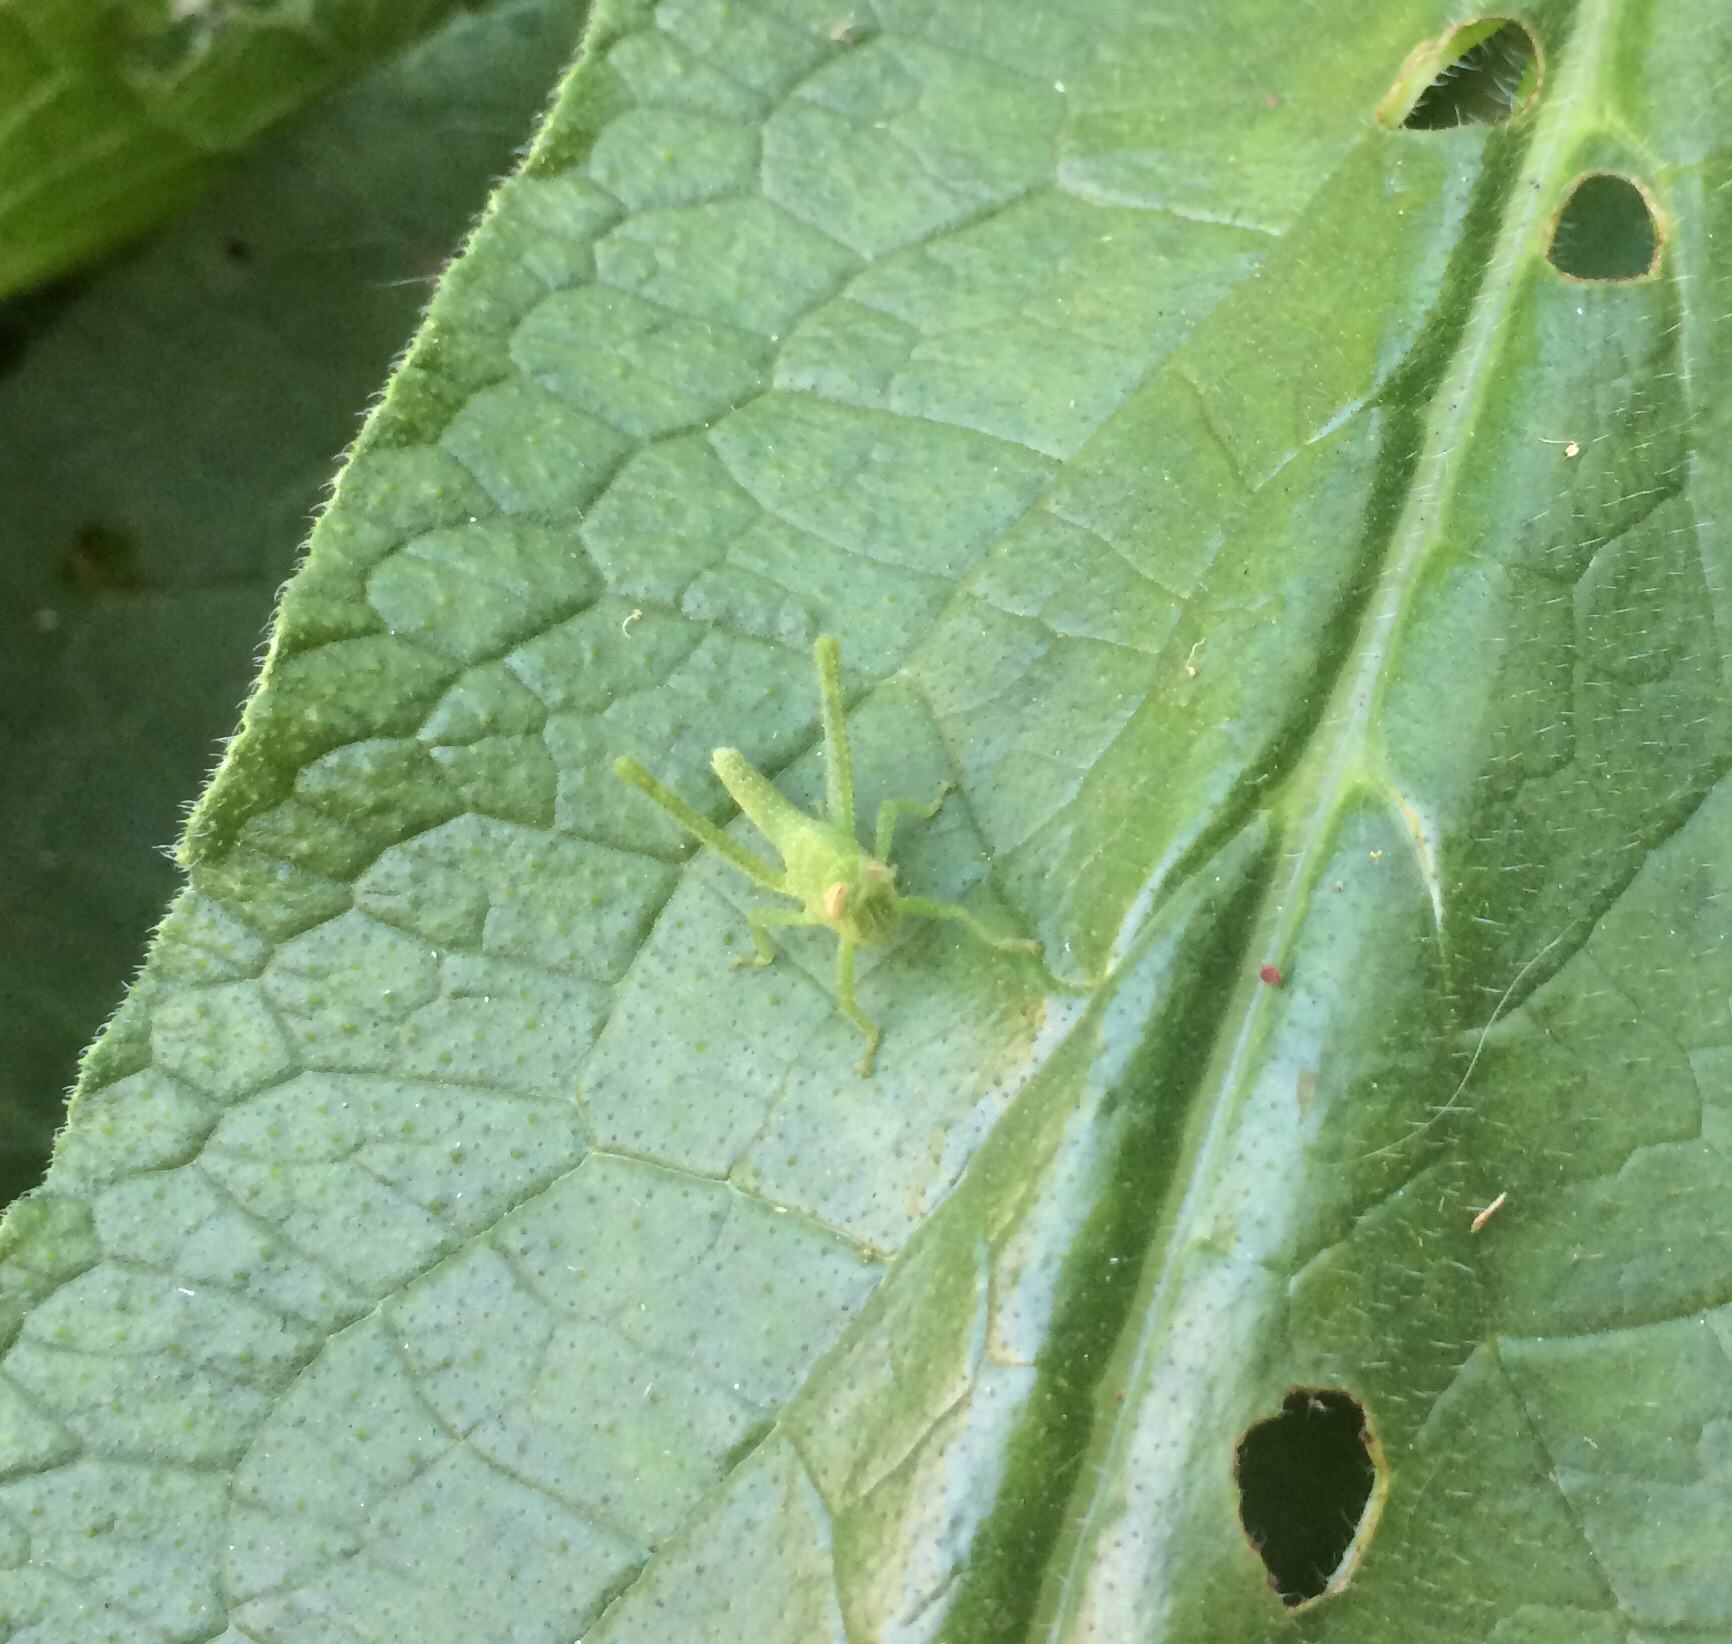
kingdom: Animalia
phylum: Arthropoda
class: Insecta
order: Orthoptera
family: Acrididae
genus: Schistocerca
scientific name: Schistocerca nitens
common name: Vagrant grasshopper
